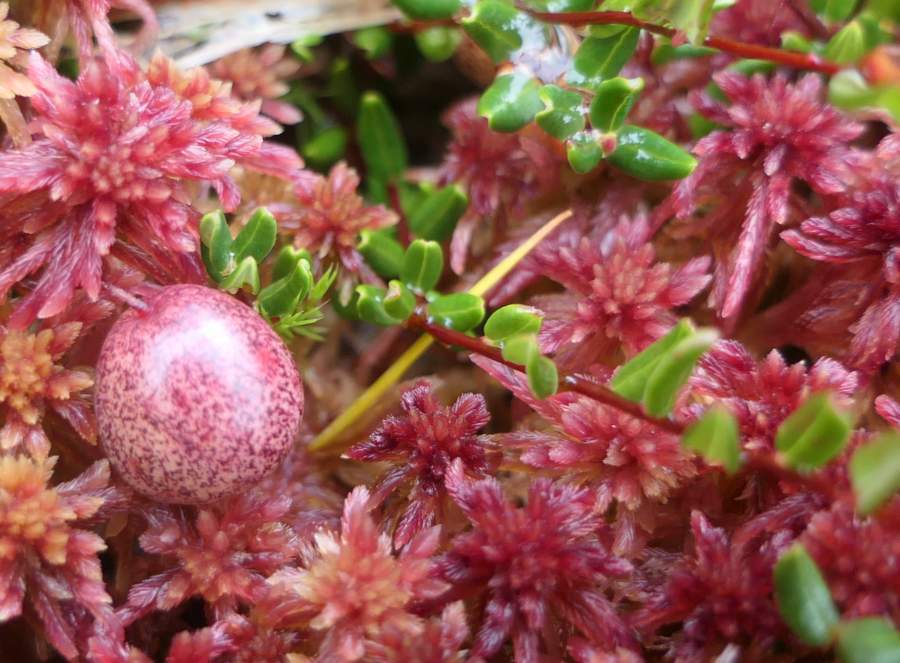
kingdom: Plantae
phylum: Tracheophyta
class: Magnoliopsida
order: Ericales
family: Ericaceae
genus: Vaccinium
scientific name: Vaccinium oxycoccos
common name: Cranberry
